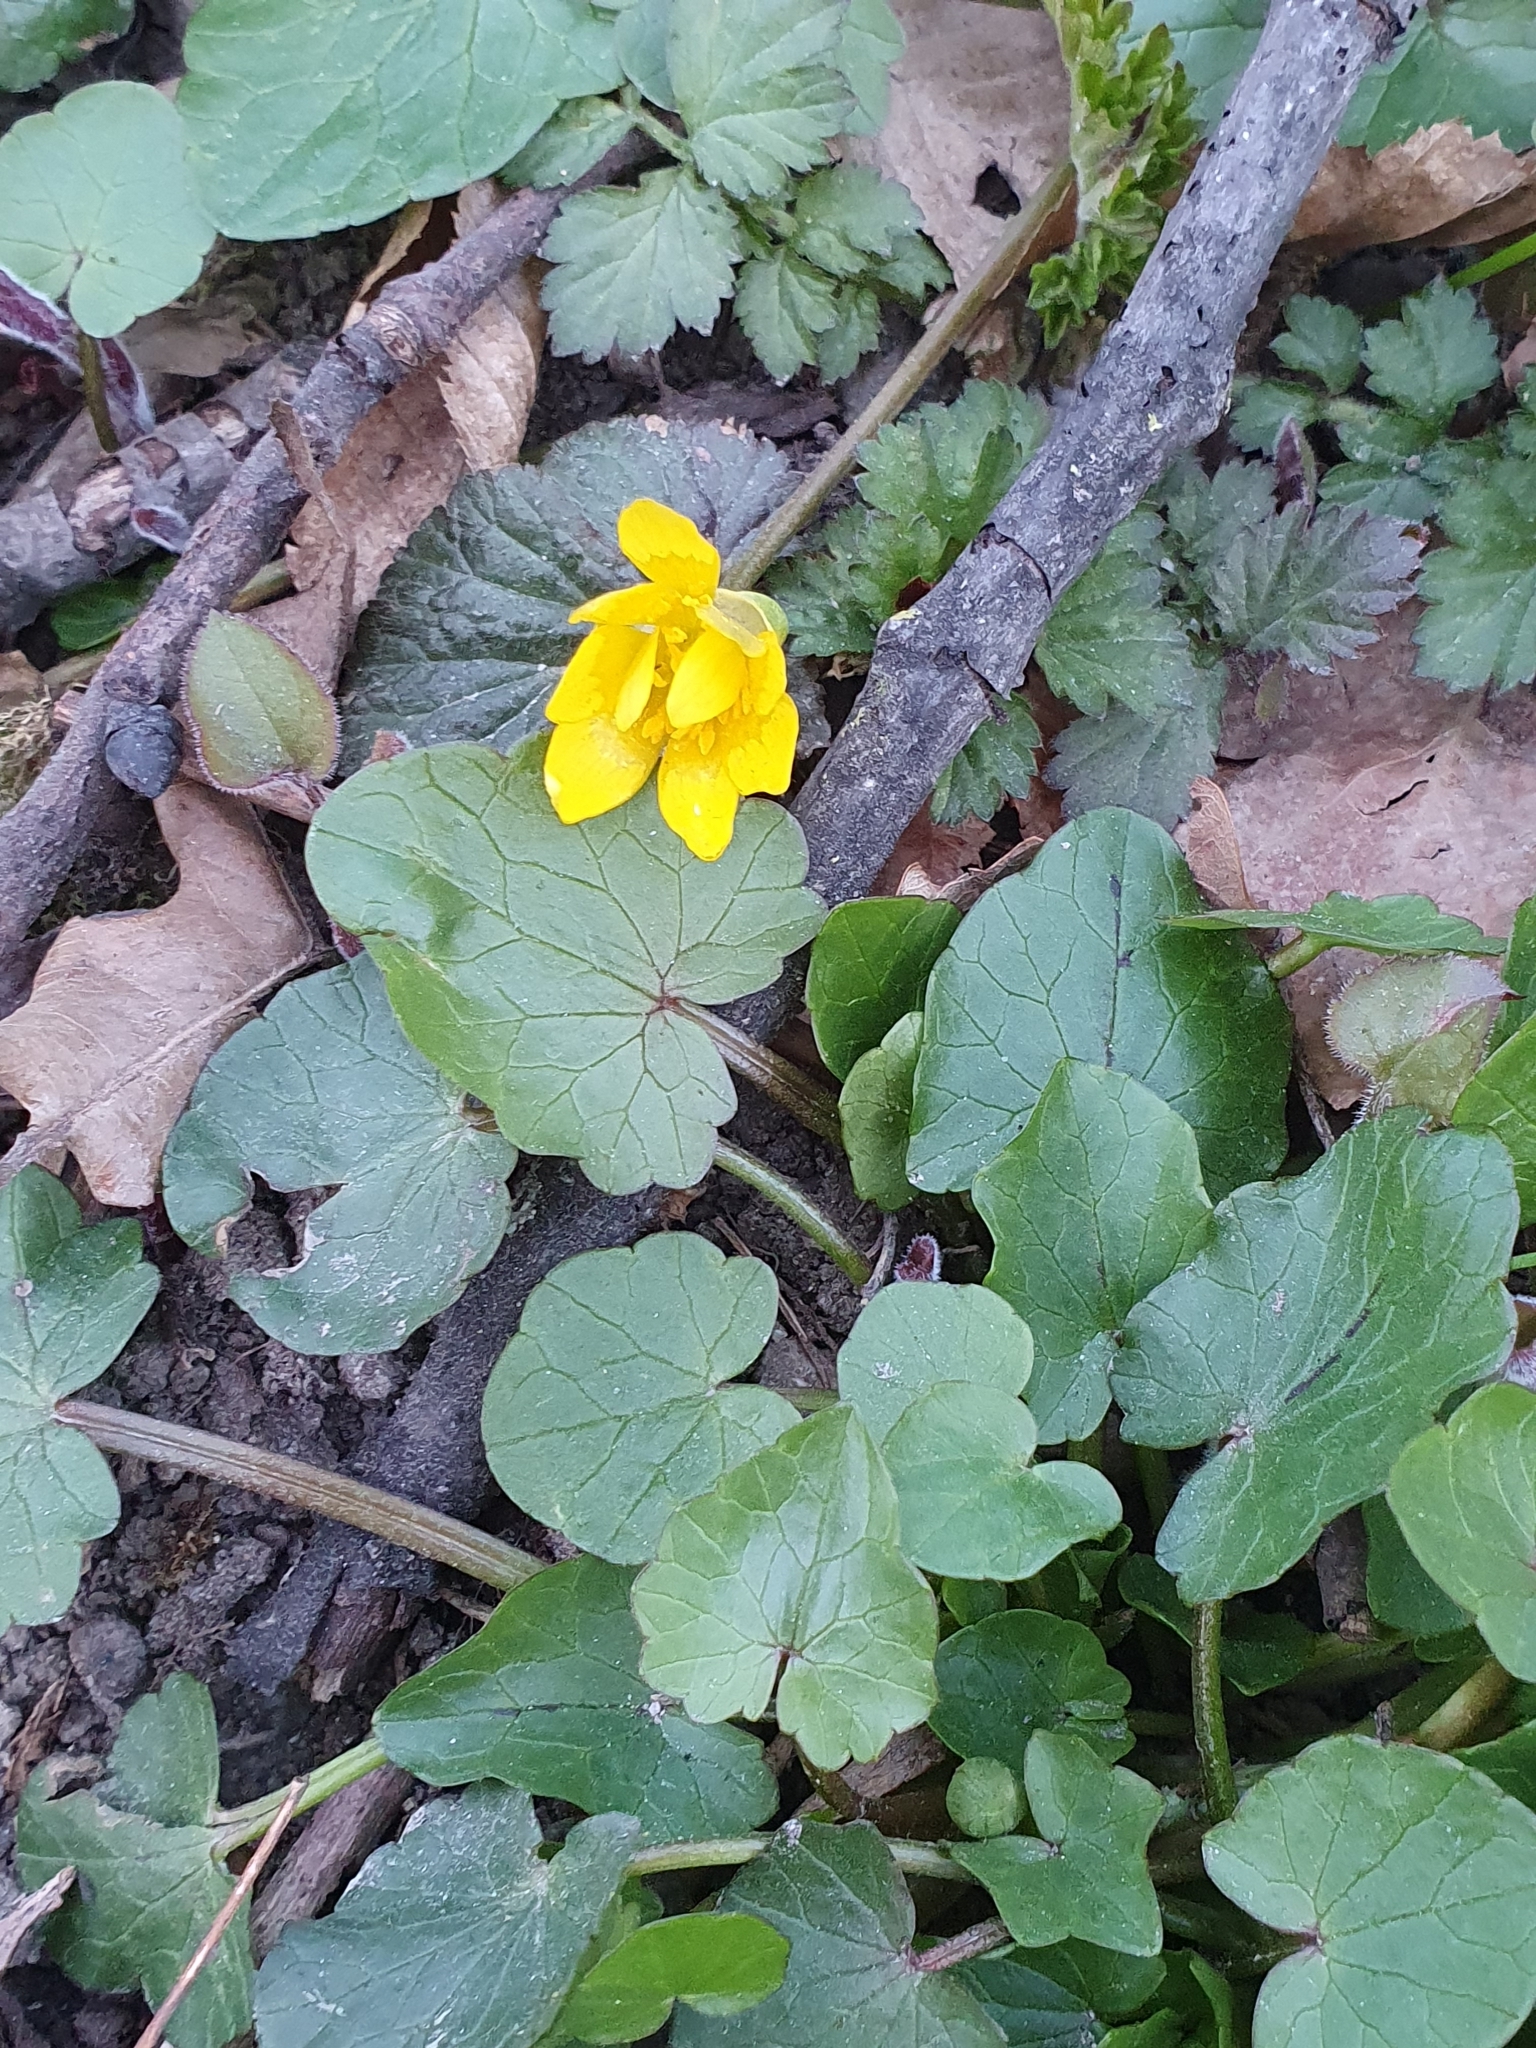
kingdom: Plantae
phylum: Tracheophyta
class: Magnoliopsida
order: Ranunculales
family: Ranunculaceae
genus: Ficaria
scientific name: Ficaria verna
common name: Lesser celandine
